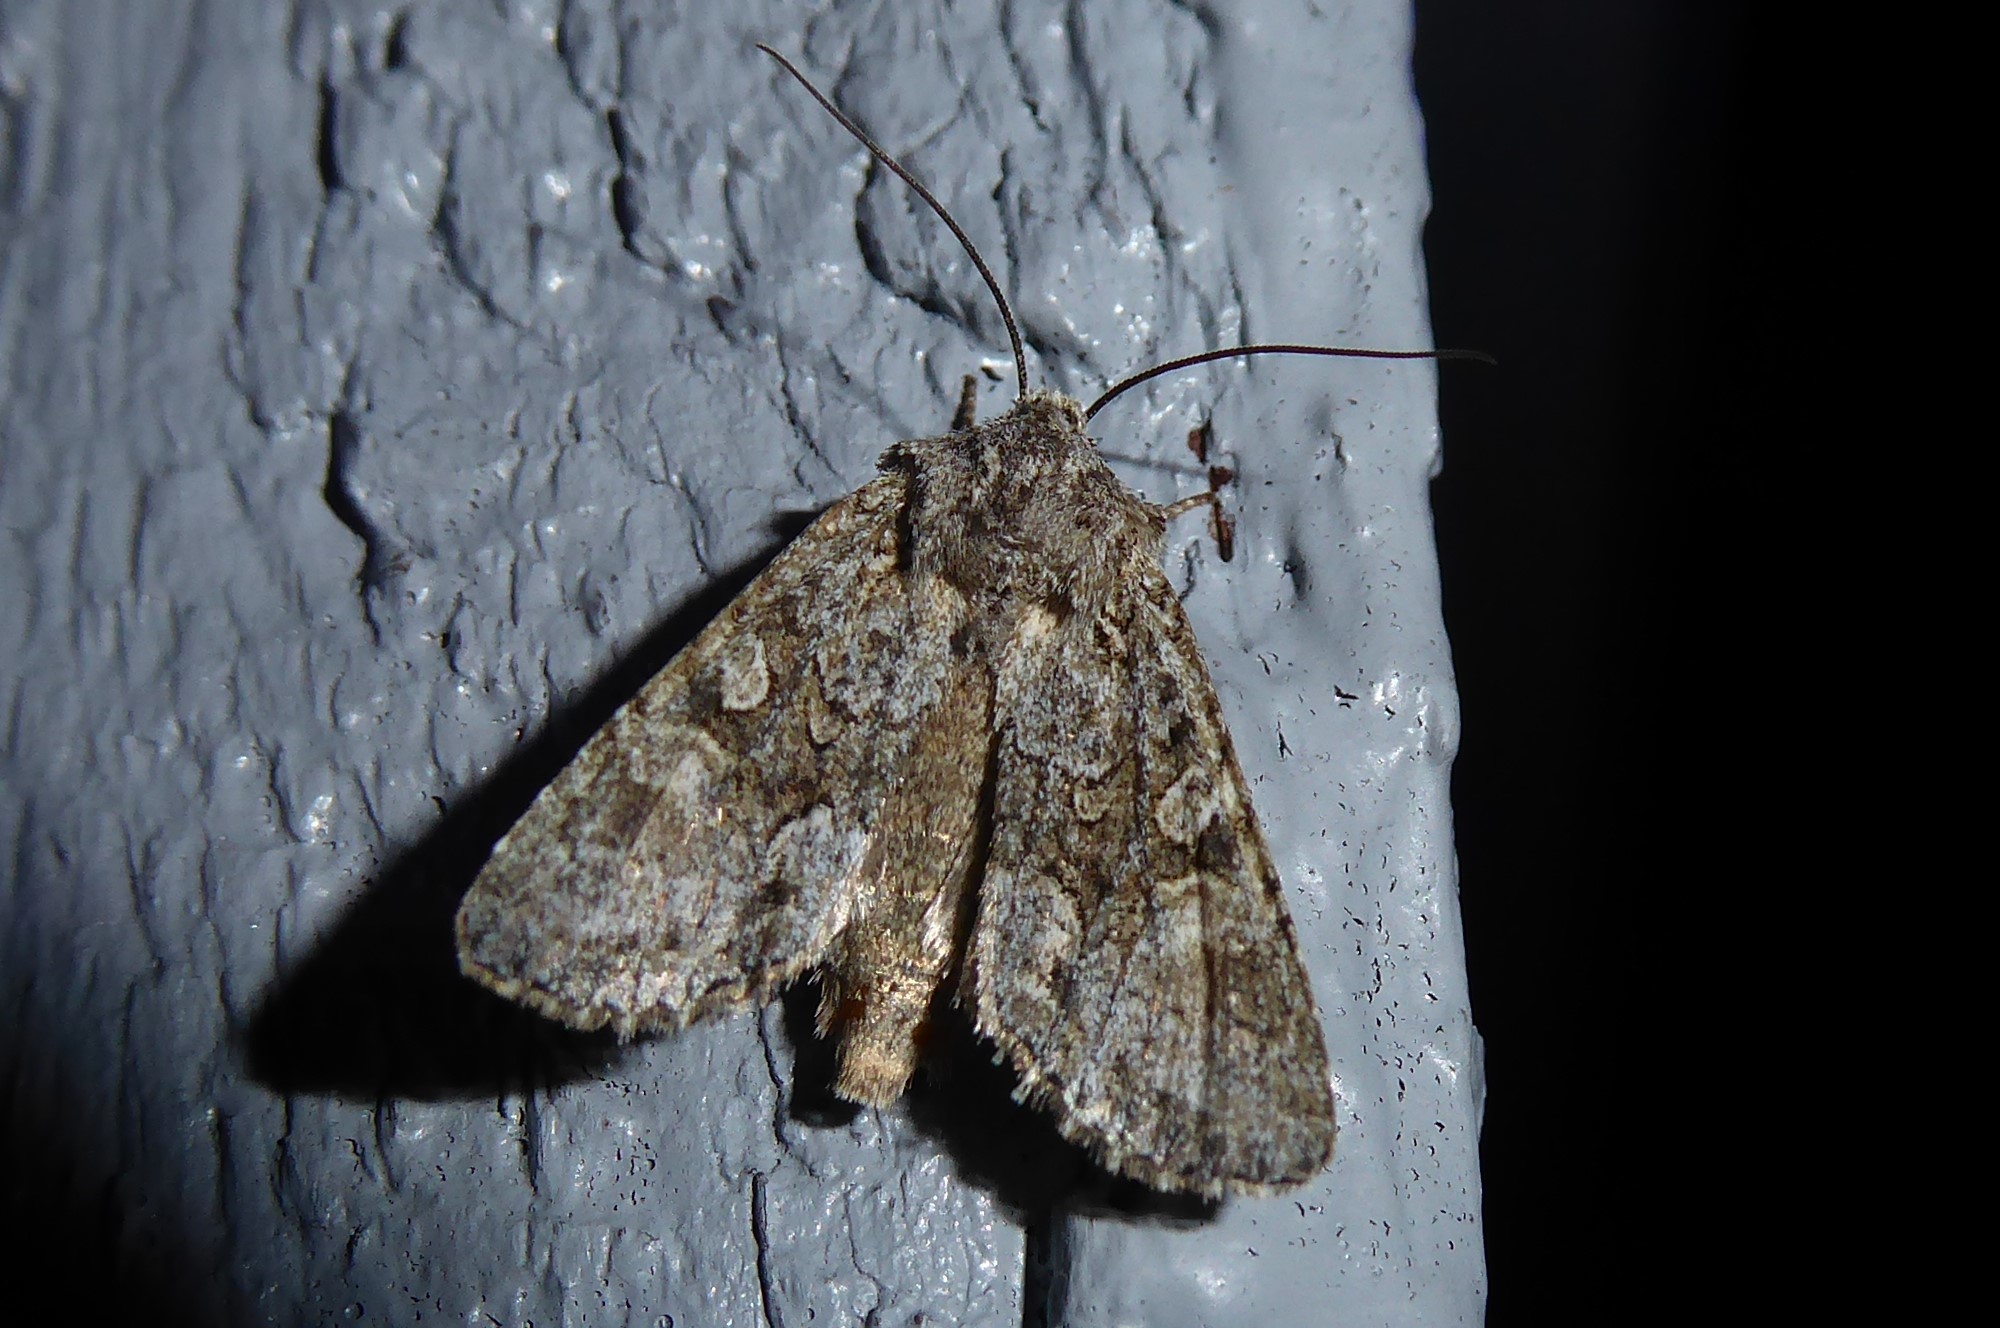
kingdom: Animalia
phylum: Arthropoda
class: Insecta
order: Lepidoptera
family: Noctuidae
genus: Ichneutica
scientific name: Ichneutica mutans
